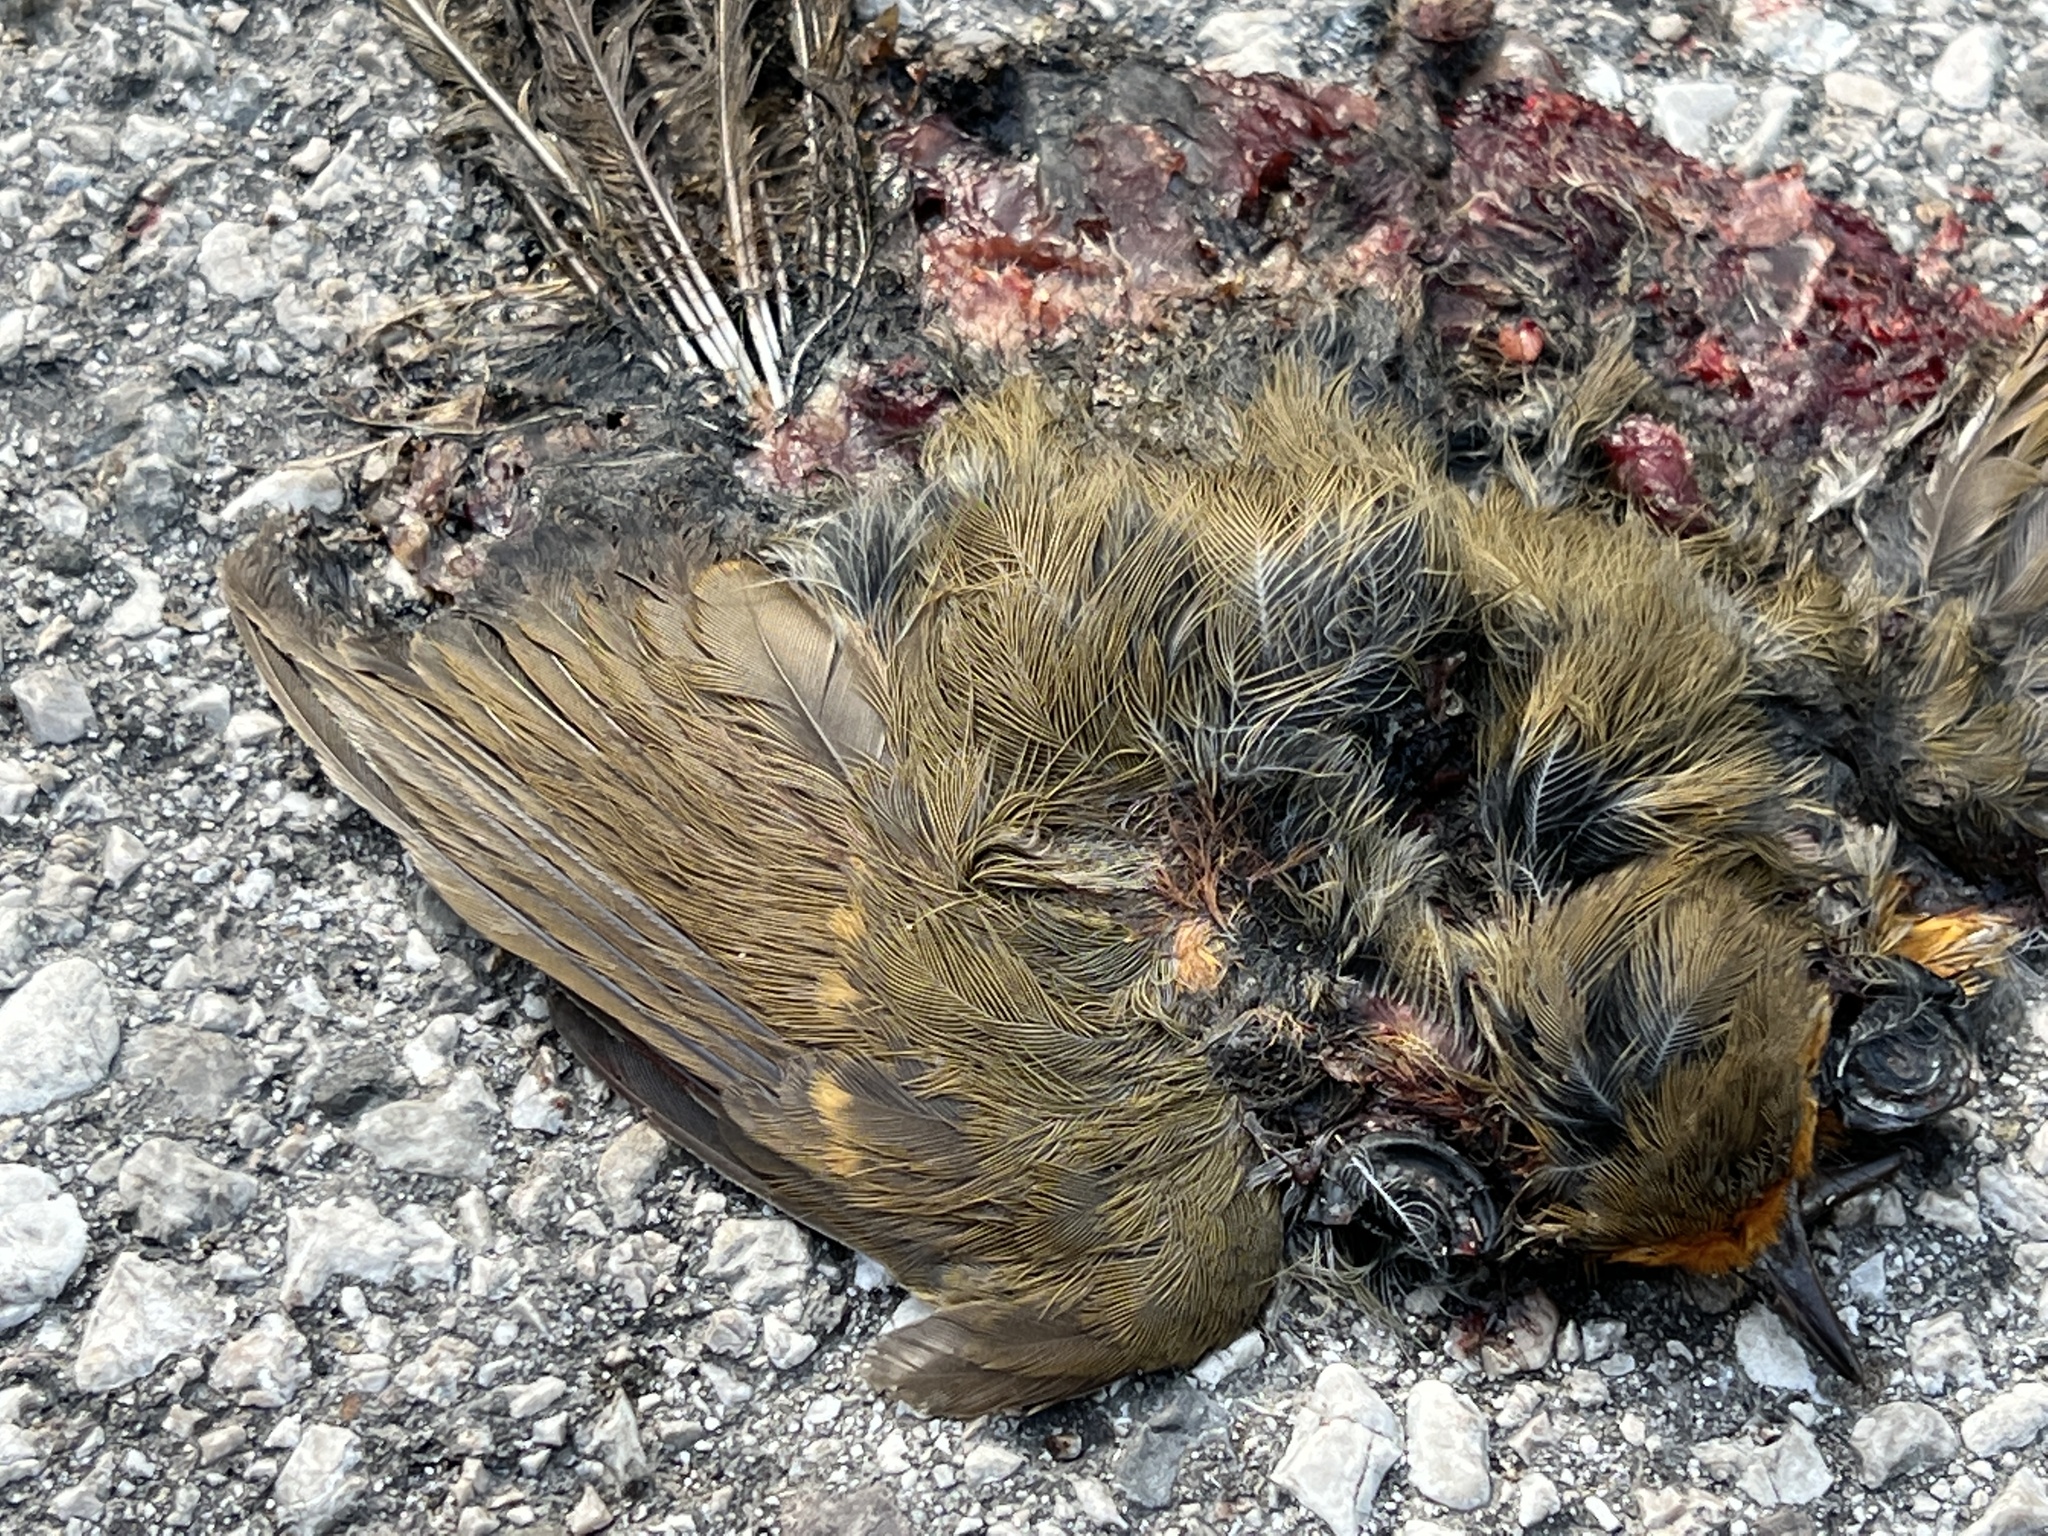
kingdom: Animalia
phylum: Chordata
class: Aves
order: Passeriformes
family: Muscicapidae
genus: Erithacus
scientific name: Erithacus rubecula
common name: European robin
